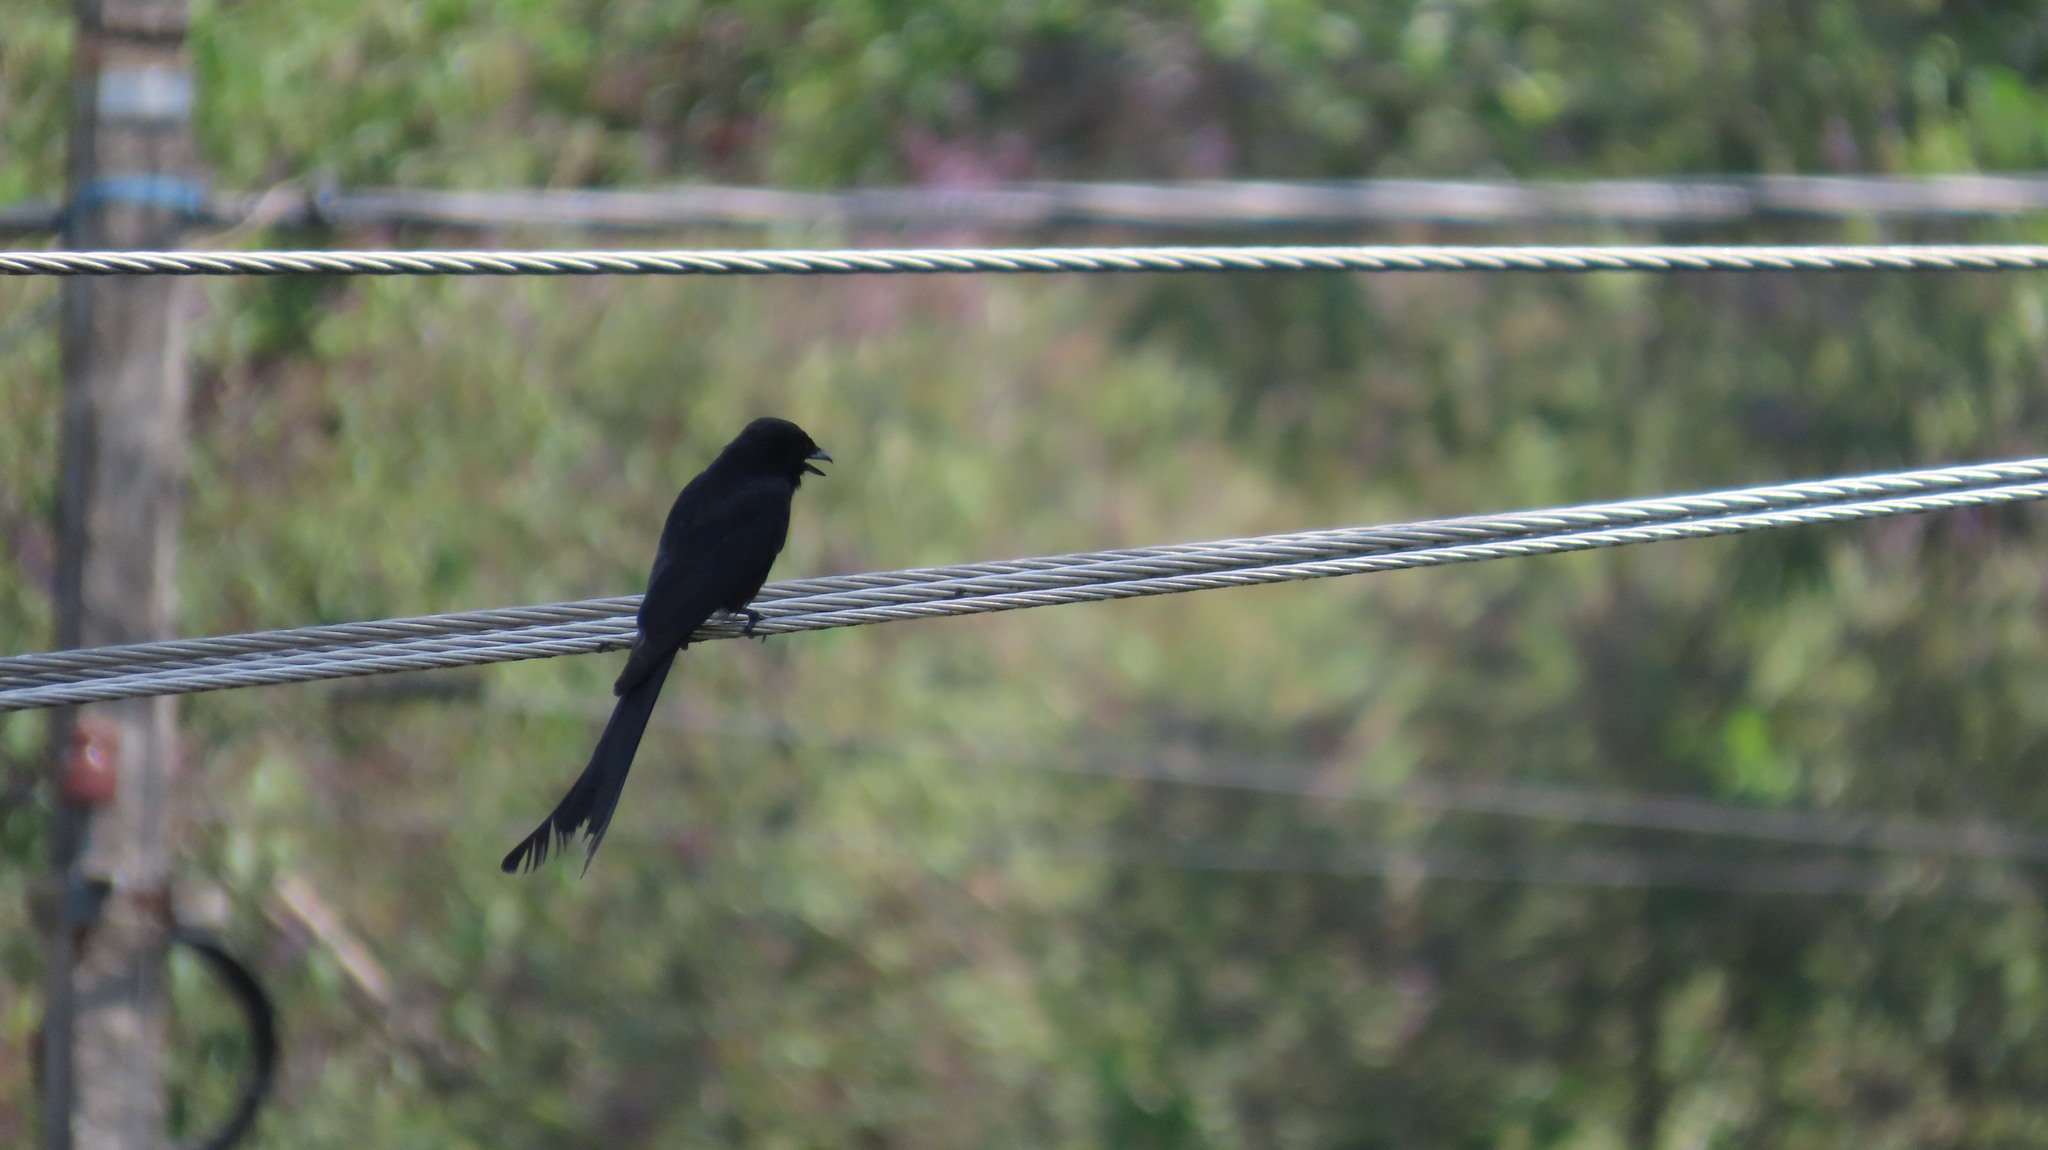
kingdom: Animalia
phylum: Chordata
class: Aves
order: Passeriformes
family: Dicruridae
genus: Dicrurus
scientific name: Dicrurus macrocercus
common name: Black drongo
